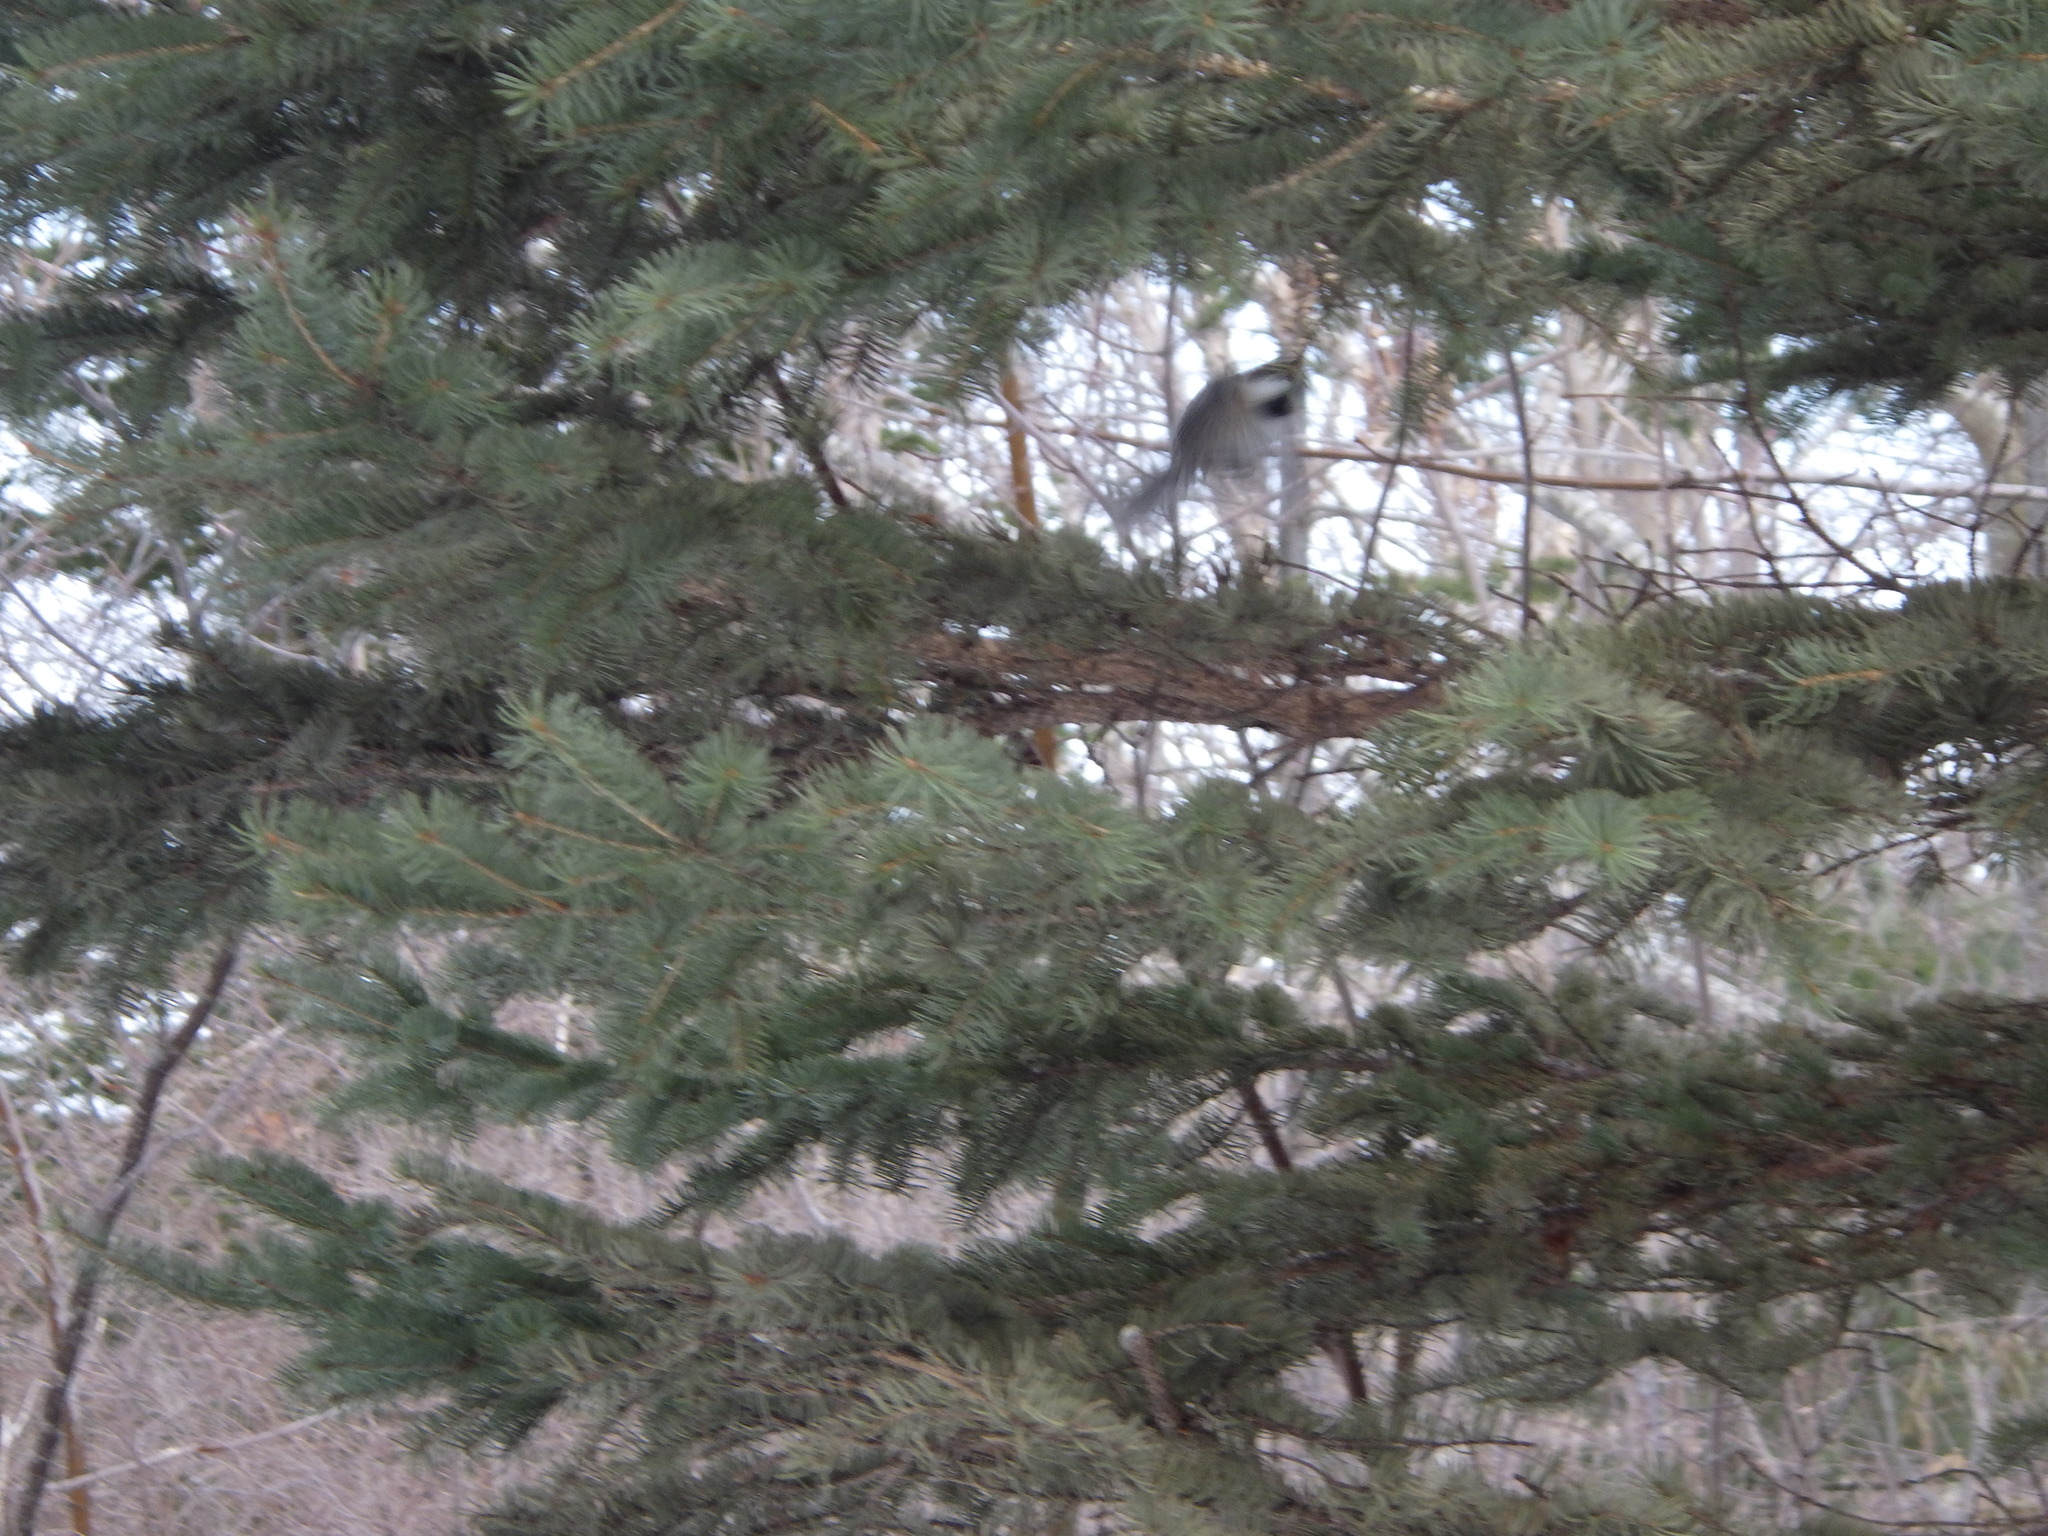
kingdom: Animalia
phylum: Chordata
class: Aves
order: Passeriformes
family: Paridae
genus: Poecile
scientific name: Poecile atricapillus
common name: Black-capped chickadee
